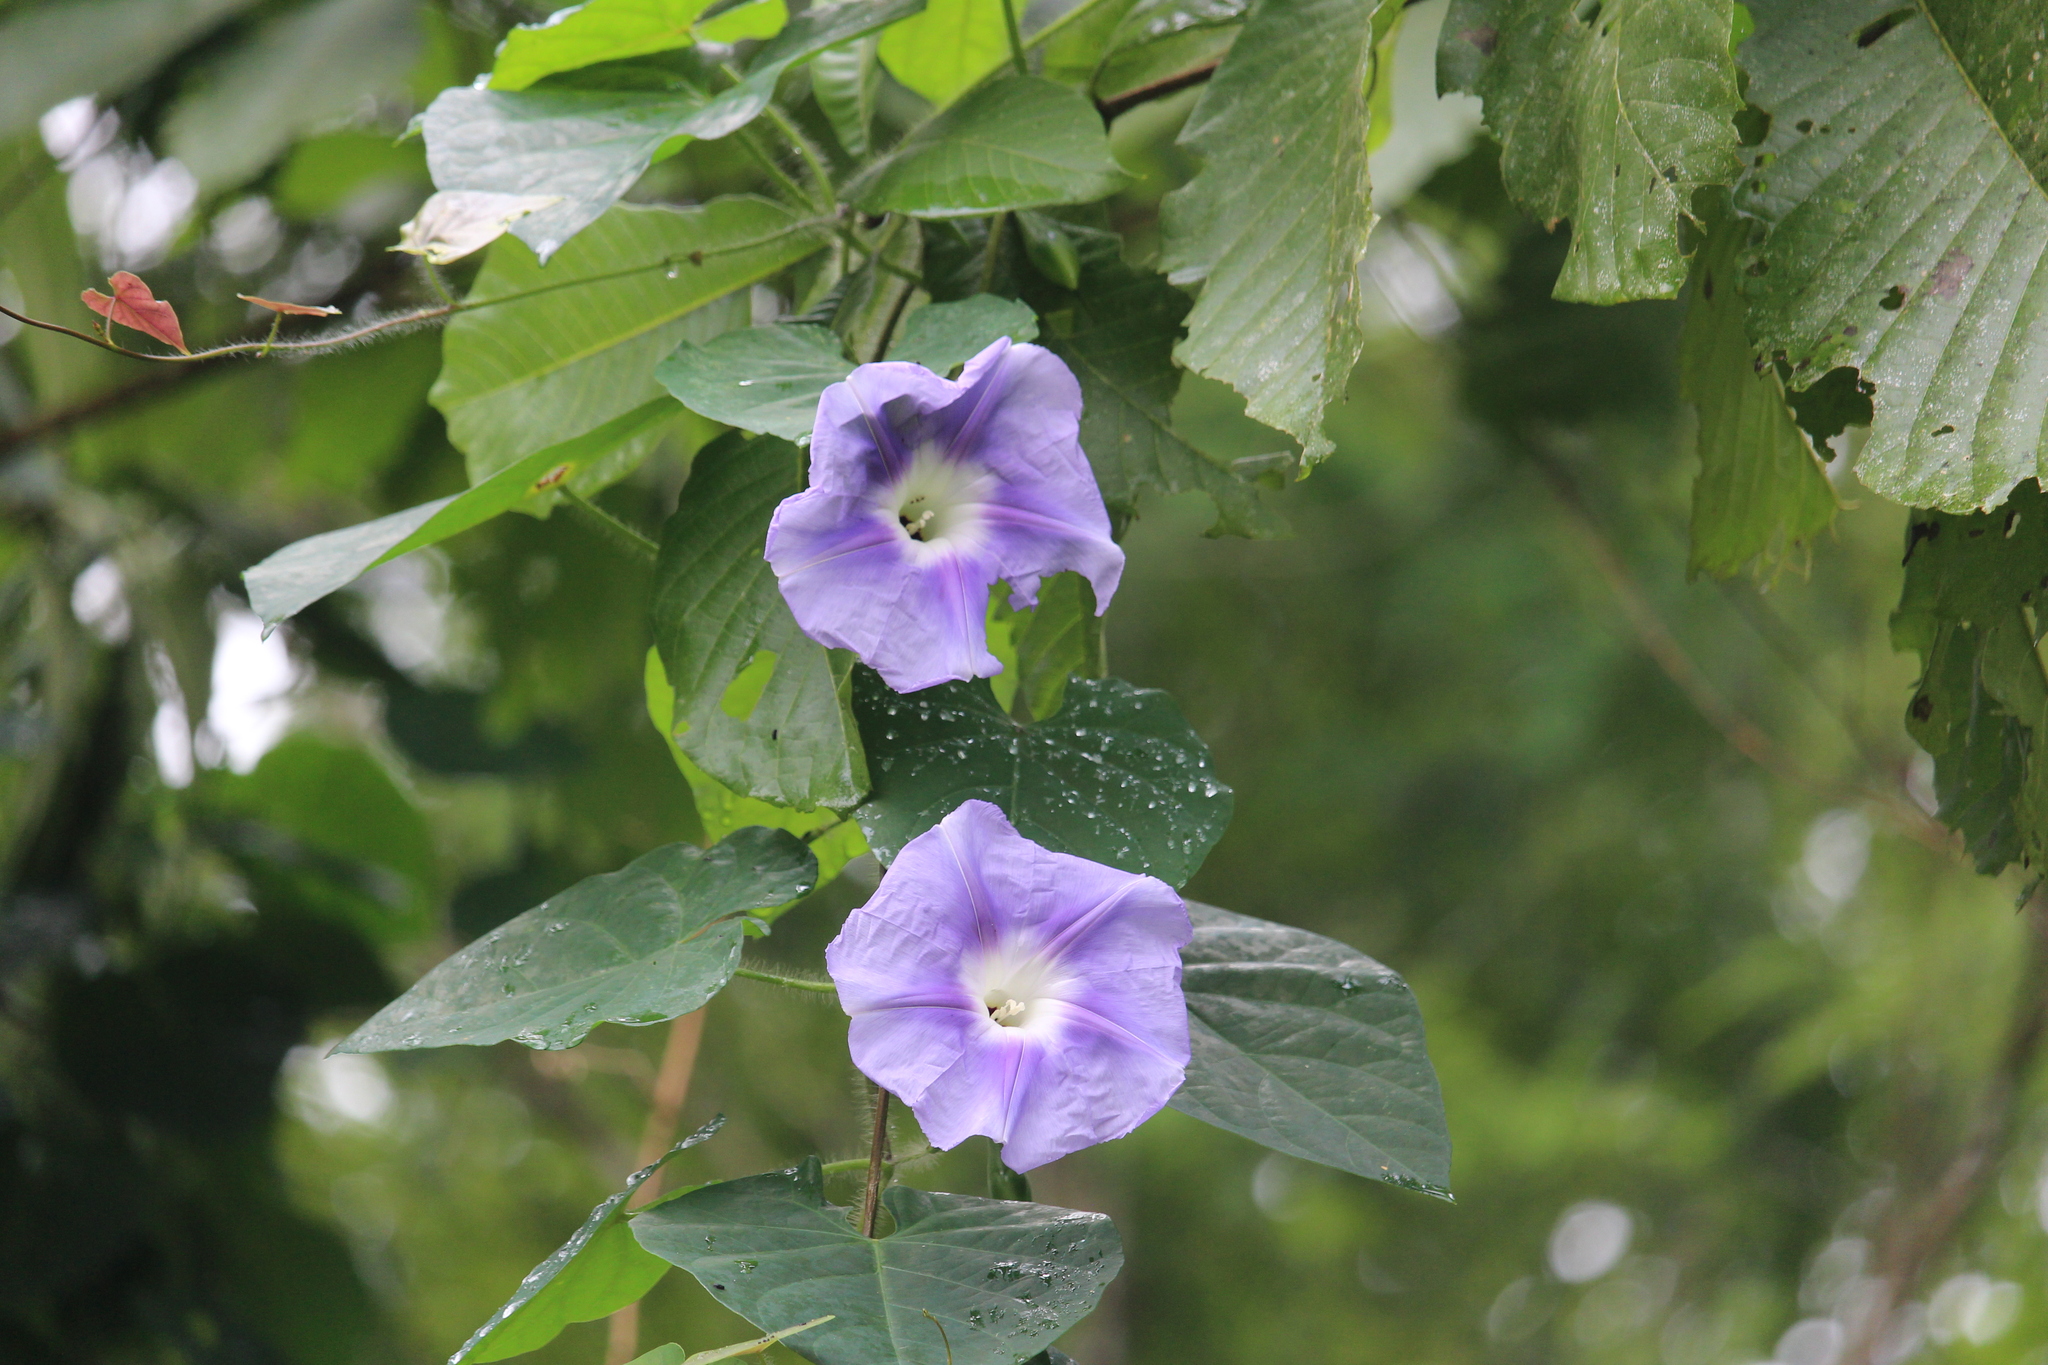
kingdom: Plantae
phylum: Tracheophyta
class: Magnoliopsida
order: Solanales
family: Convolvulaceae
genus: Ipomoea
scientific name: Ipomoea clavata
